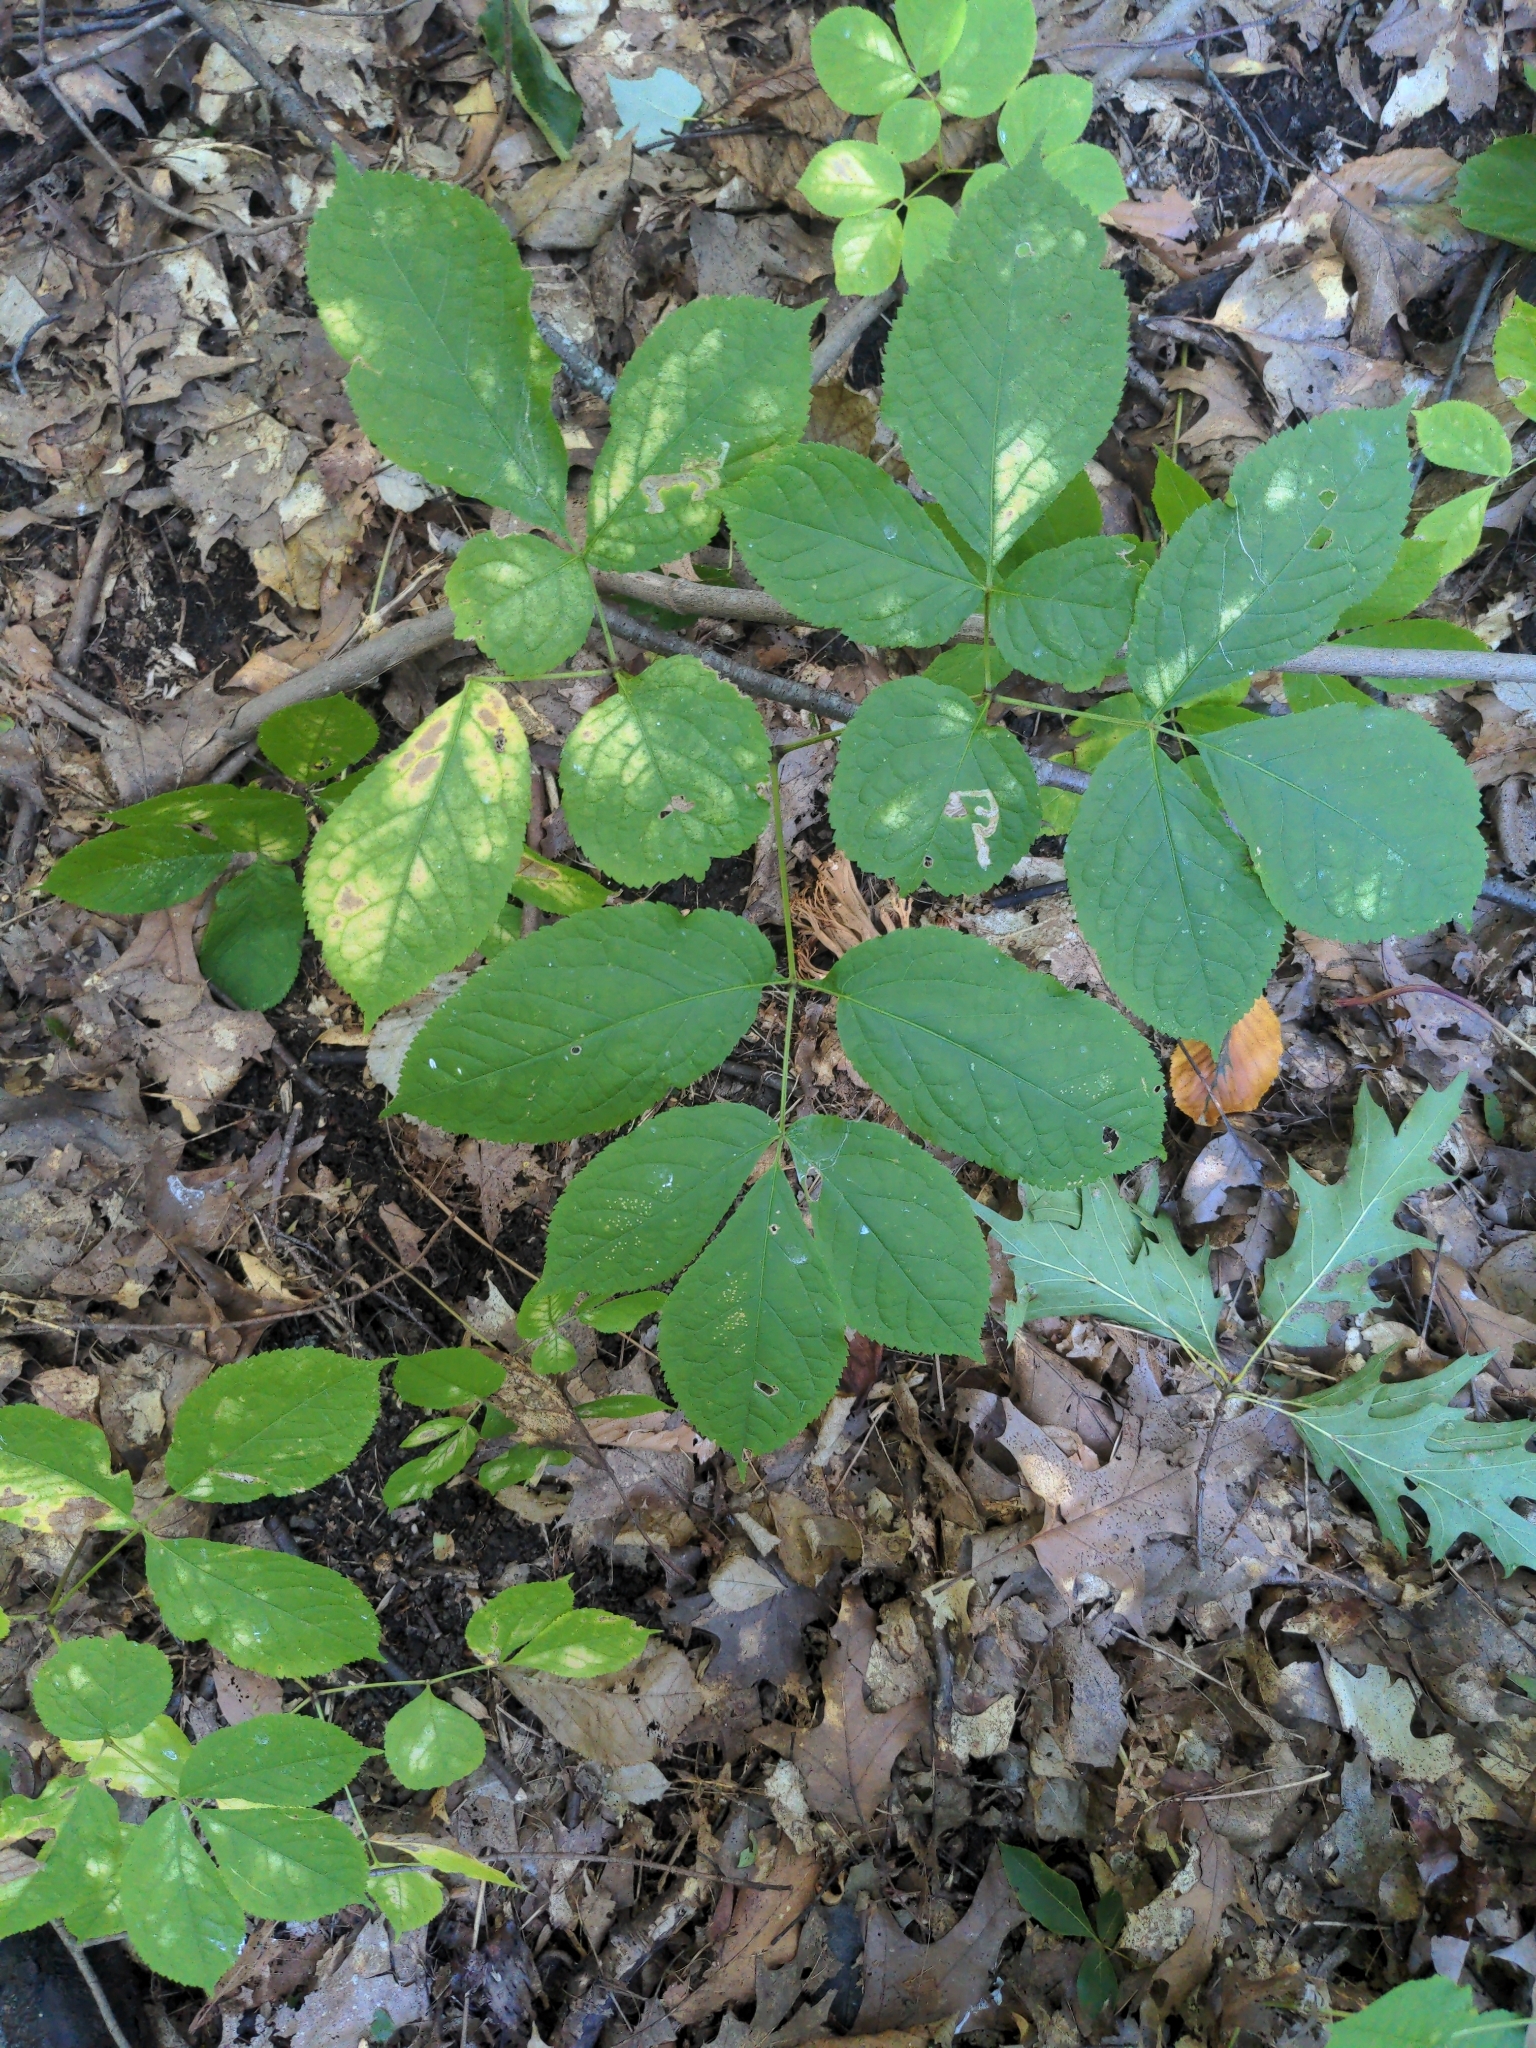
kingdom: Plantae
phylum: Tracheophyta
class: Magnoliopsida
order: Apiales
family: Araliaceae
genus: Aralia
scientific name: Aralia nudicaulis
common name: Wild sarsaparilla
